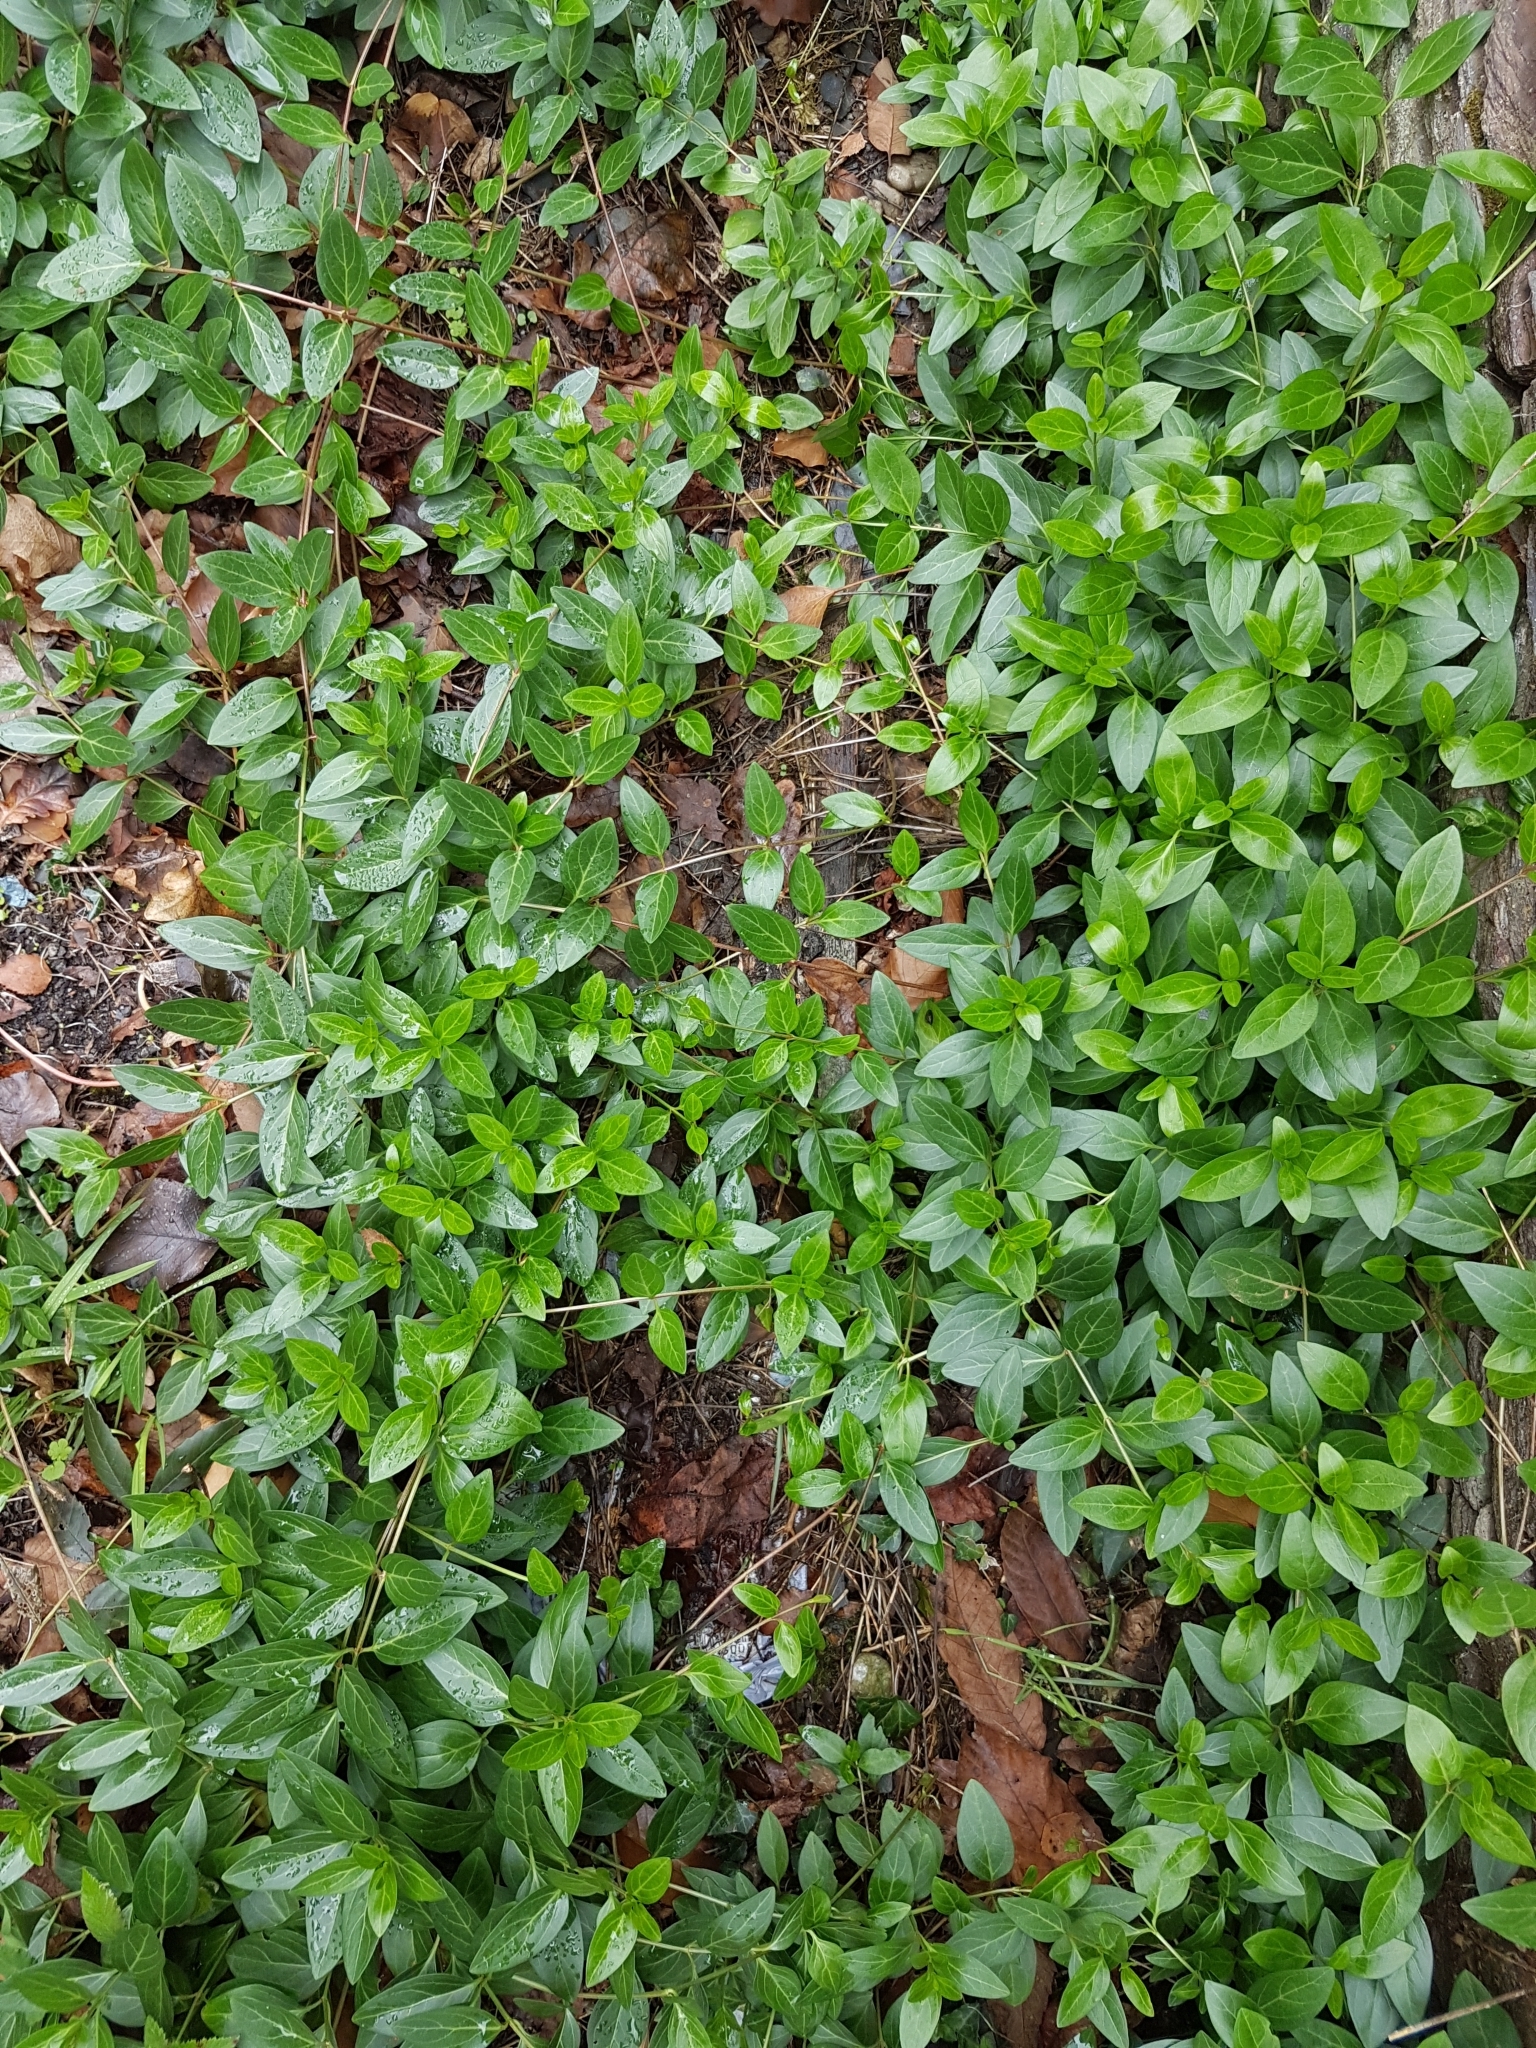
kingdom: Plantae
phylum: Tracheophyta
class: Magnoliopsida
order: Gentianales
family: Apocynaceae
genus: Vinca
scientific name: Vinca difformis
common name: Intermediate periwinkle
